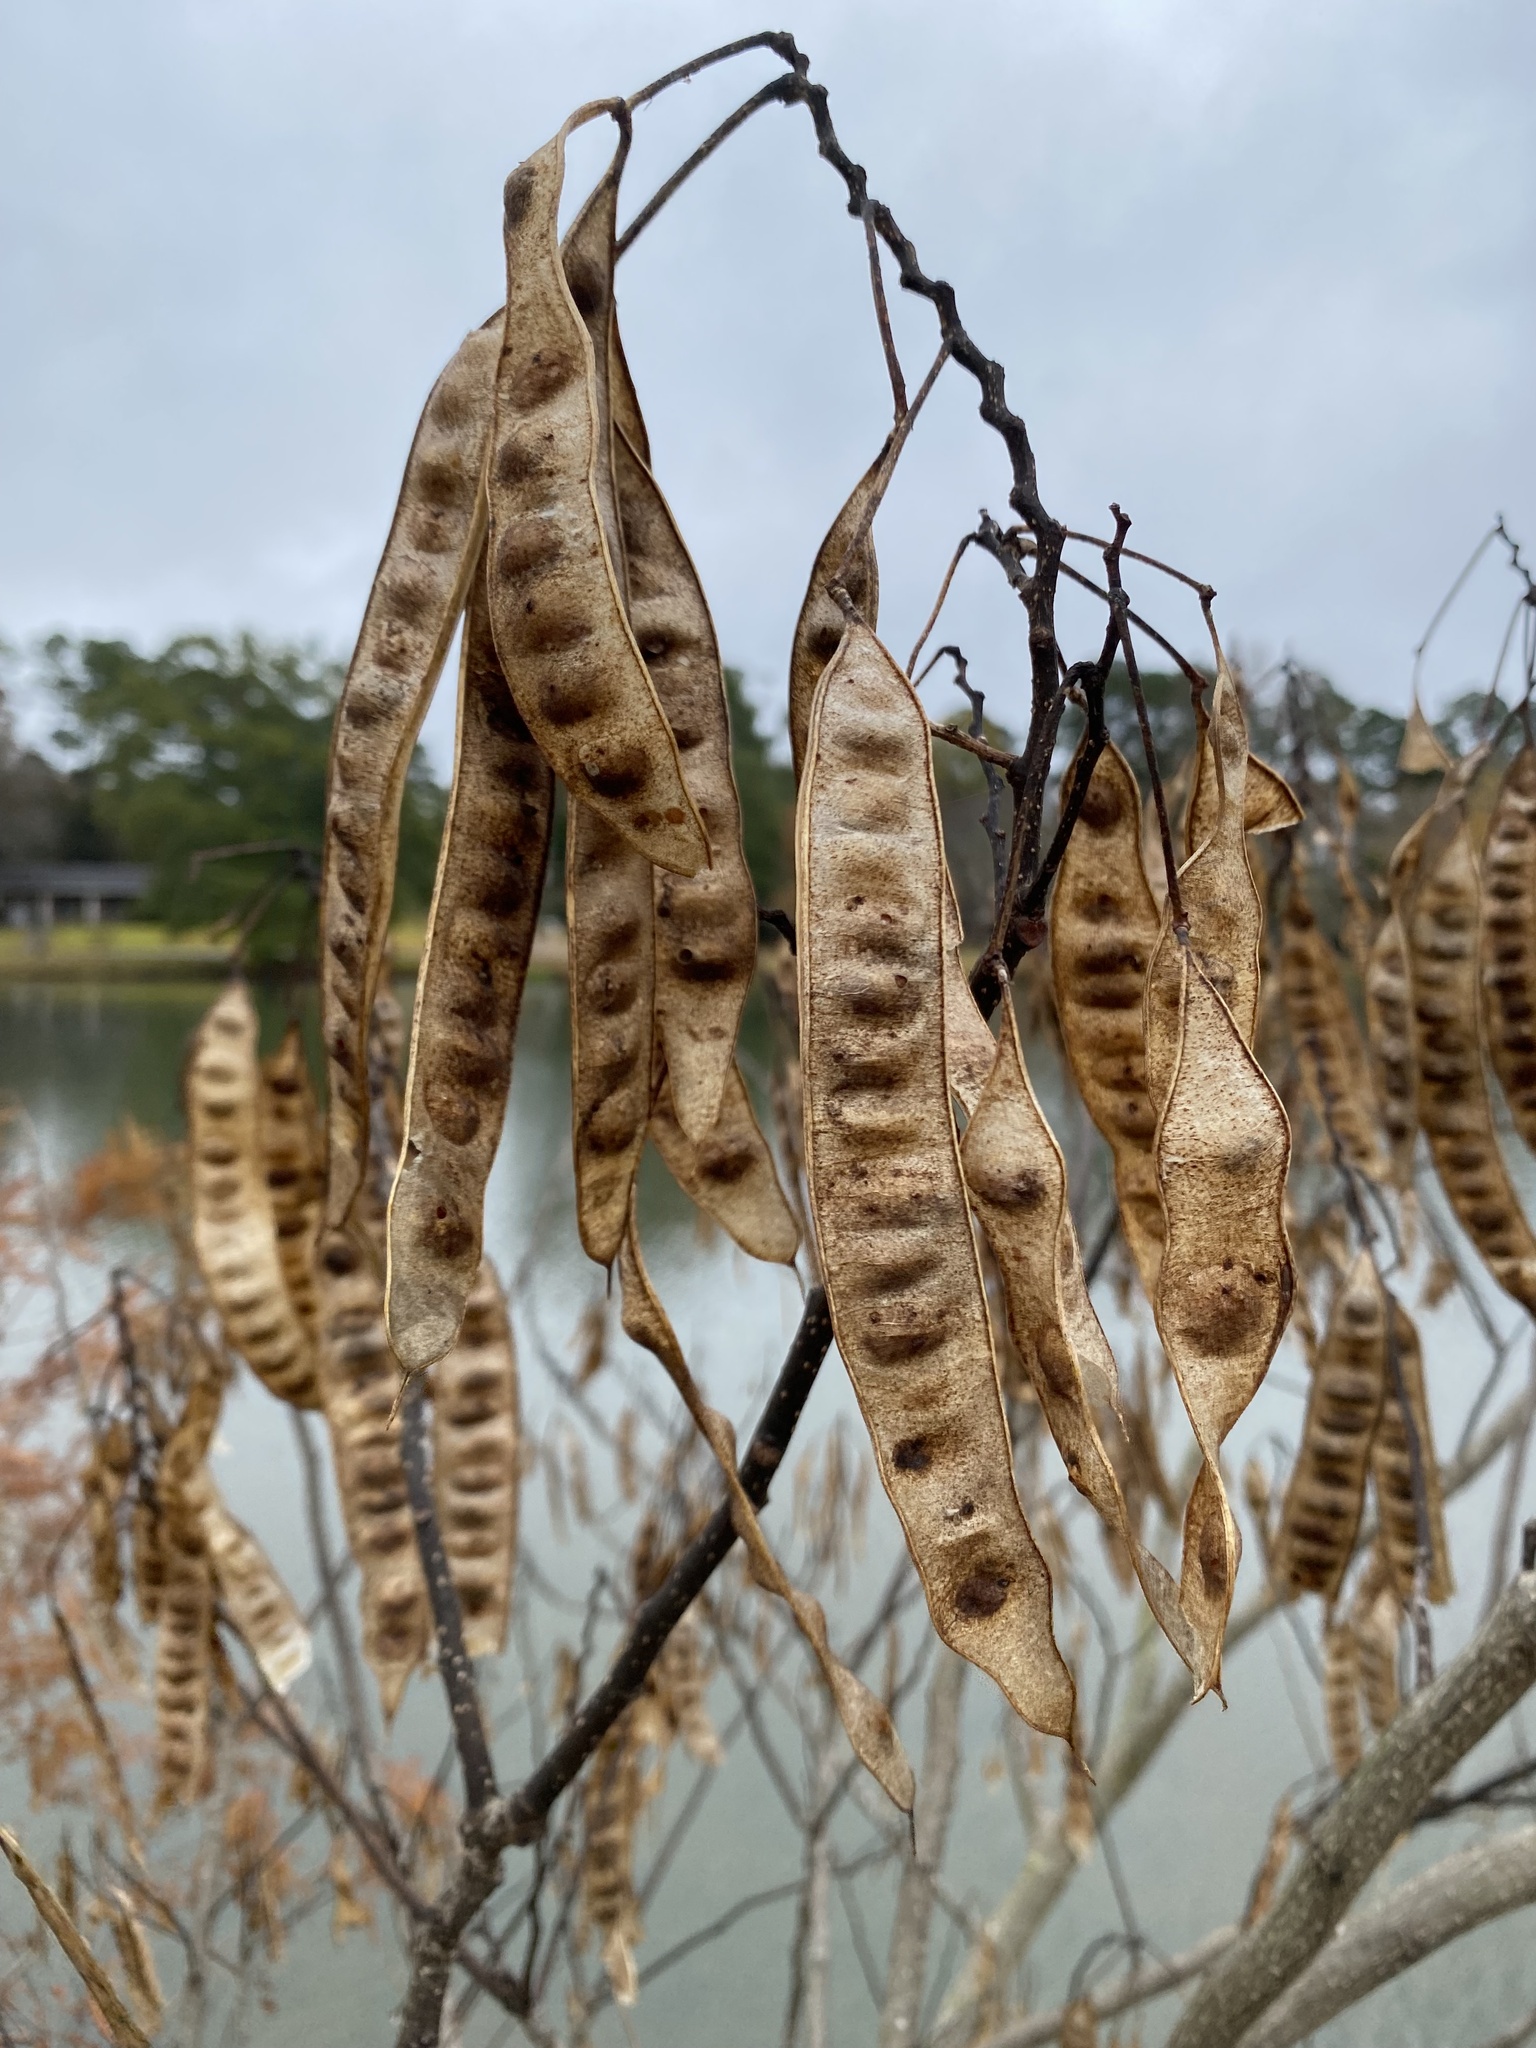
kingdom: Plantae
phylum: Tracheophyta
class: Magnoliopsida
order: Fabales
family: Fabaceae
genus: Albizia
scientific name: Albizia julibrissin
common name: Silktree
